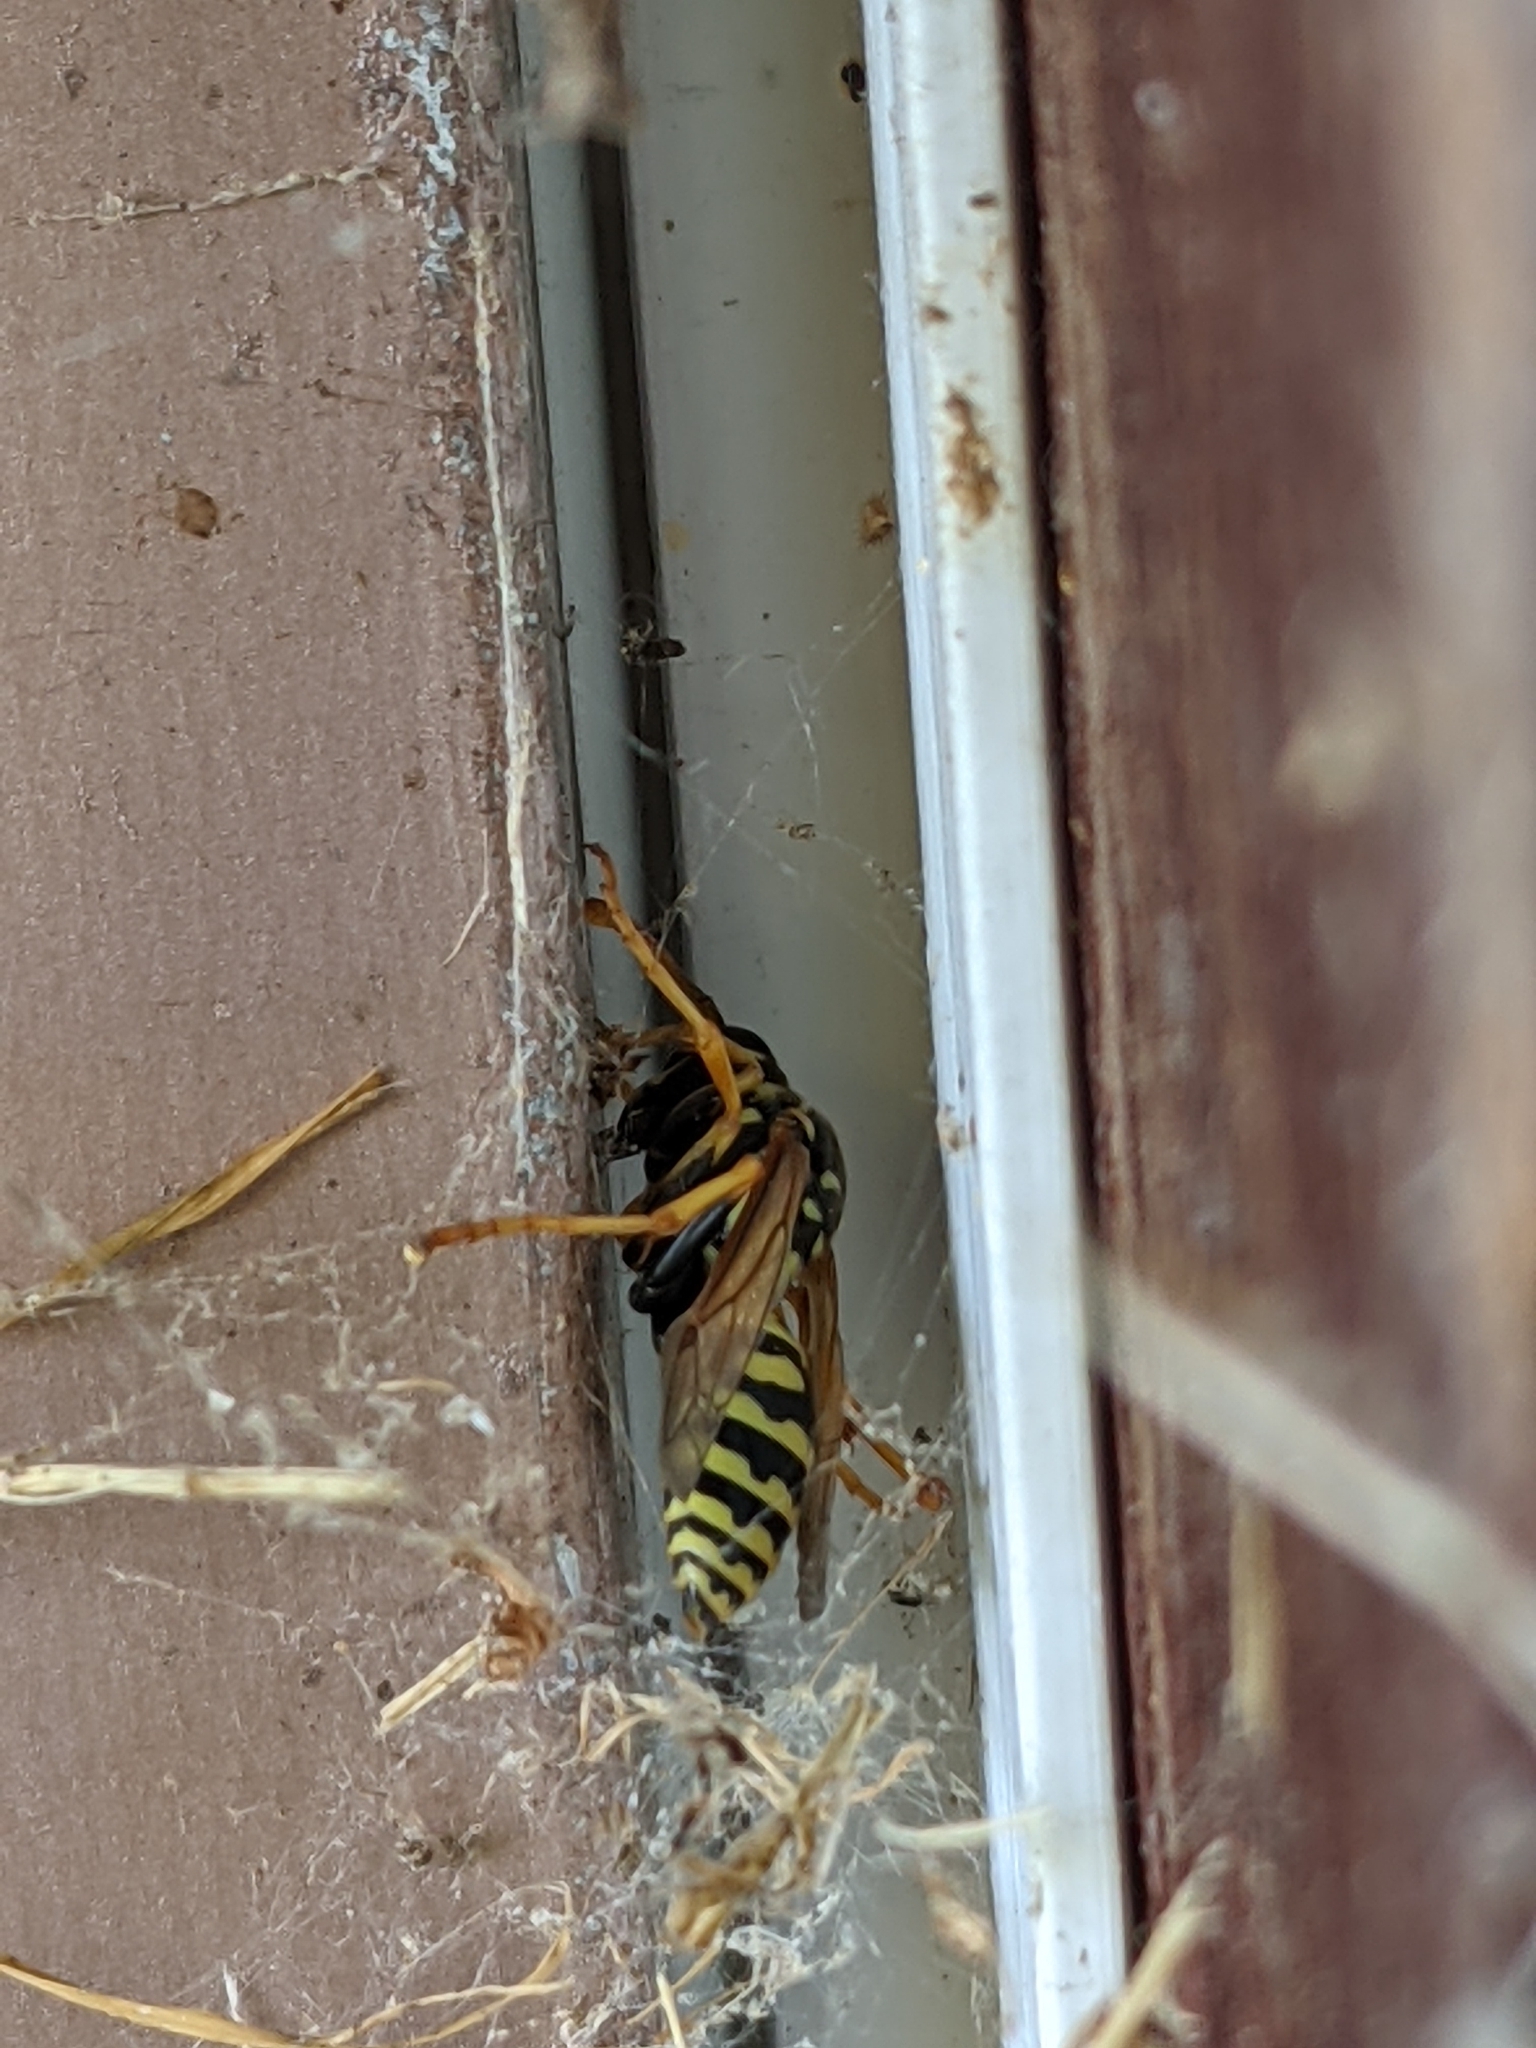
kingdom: Animalia
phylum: Arthropoda
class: Insecta
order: Hymenoptera
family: Eumenidae
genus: Polistes
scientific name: Polistes dominula
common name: Paper wasp
